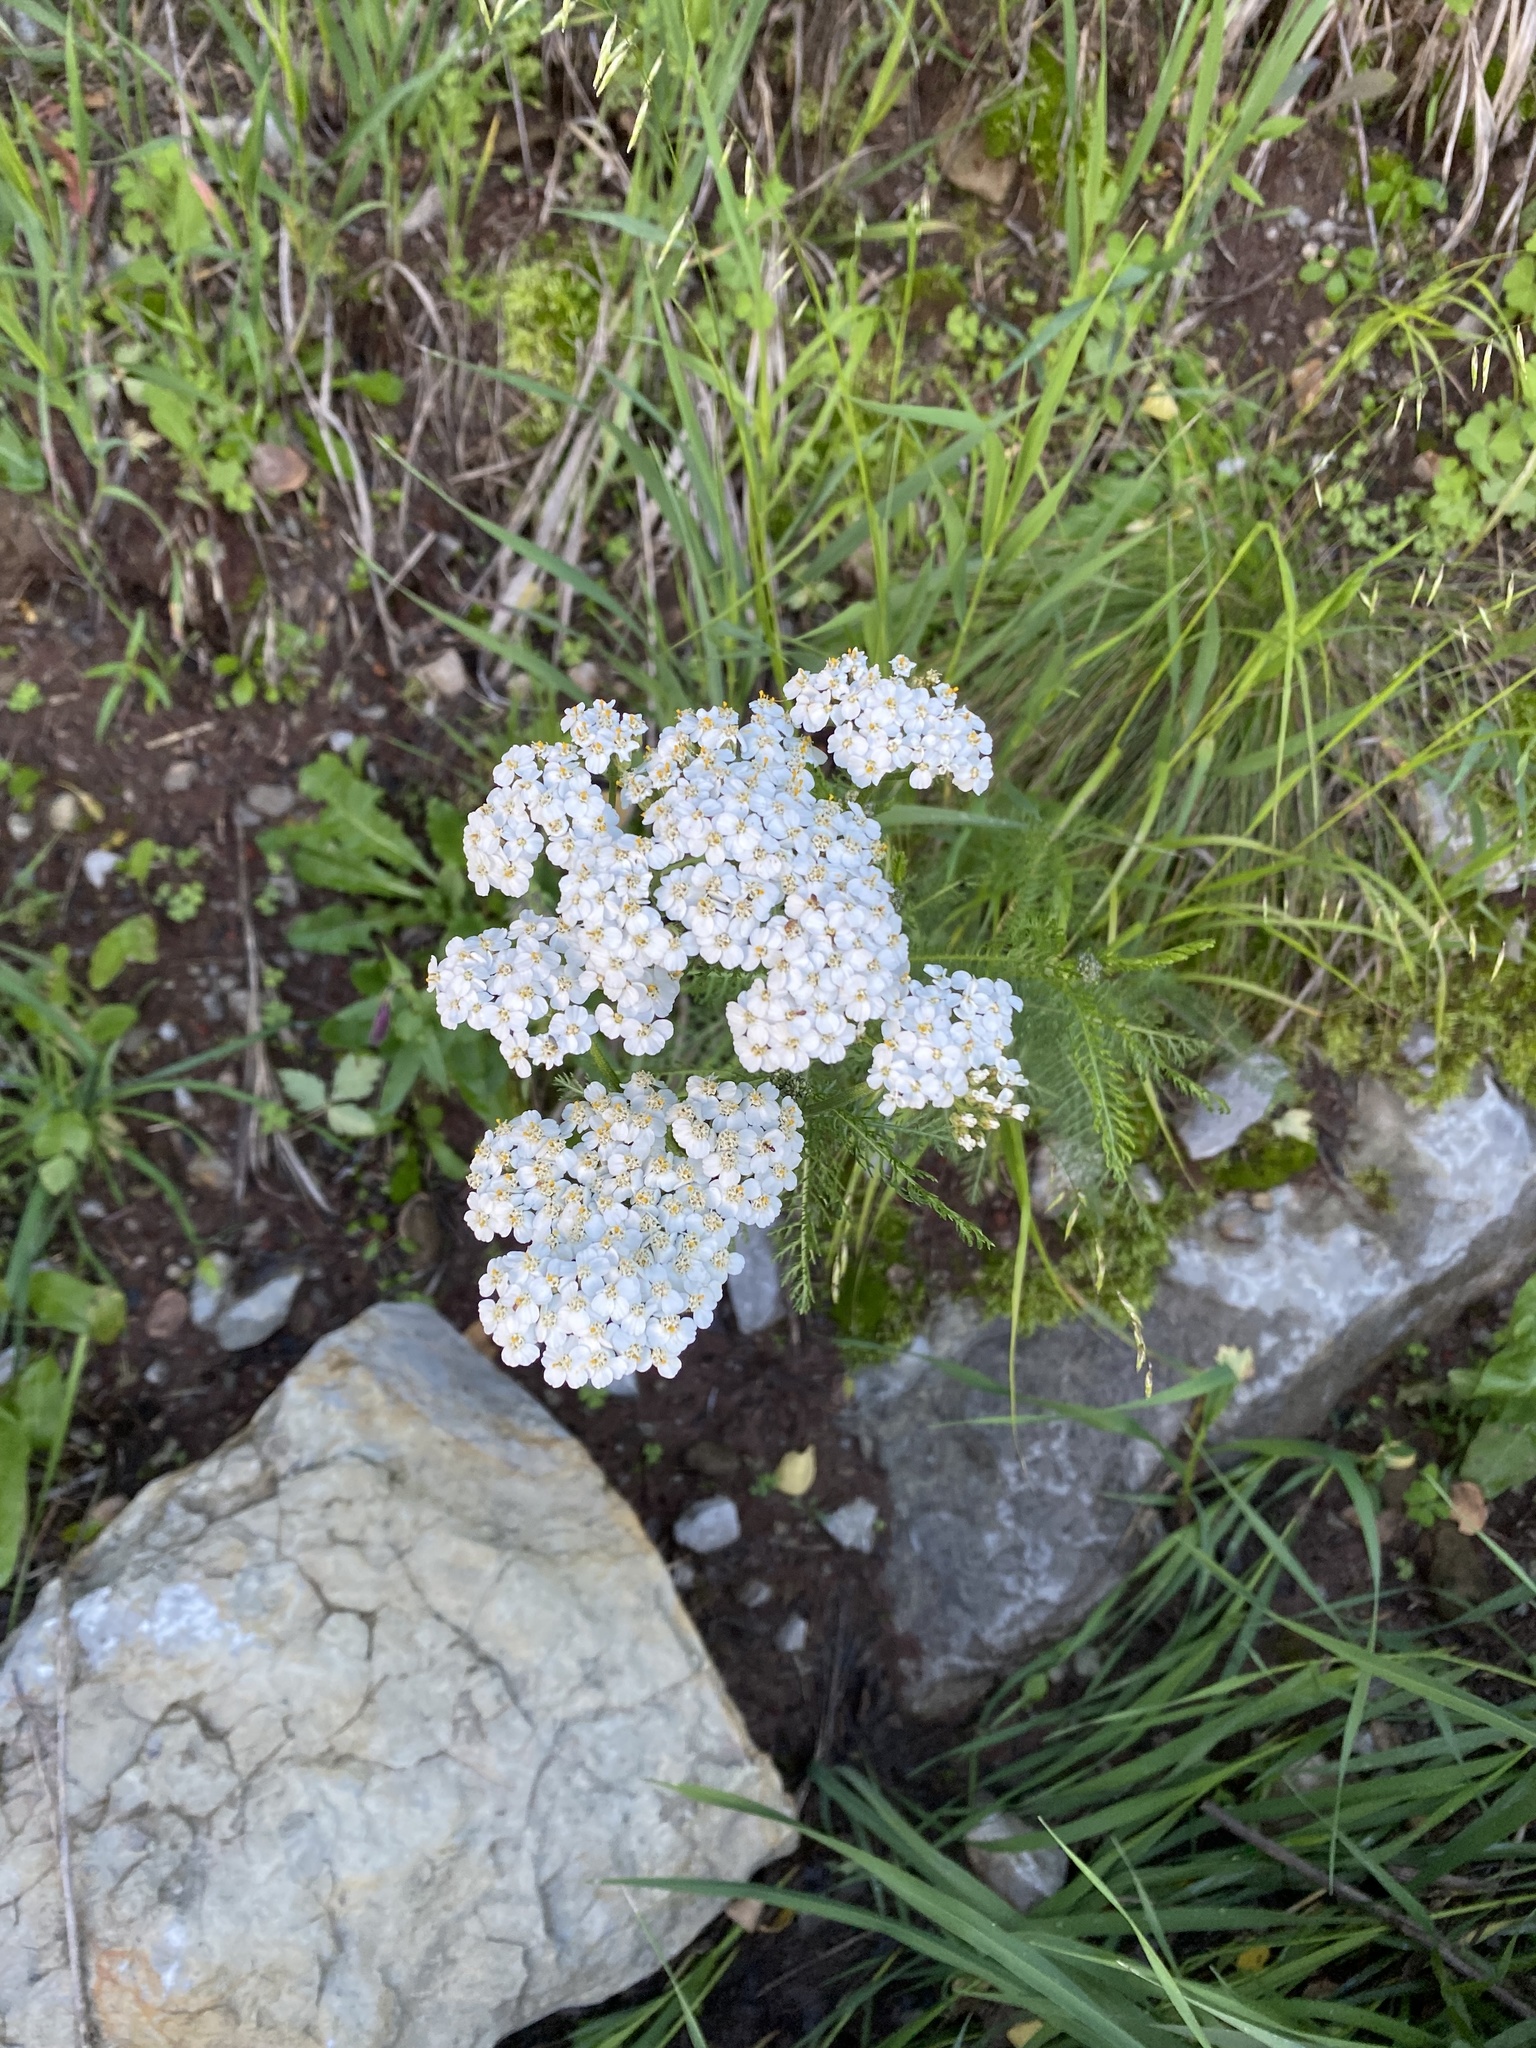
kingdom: Plantae
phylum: Tracheophyta
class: Magnoliopsida
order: Asterales
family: Asteraceae
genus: Achillea
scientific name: Achillea millefolium
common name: Yarrow
